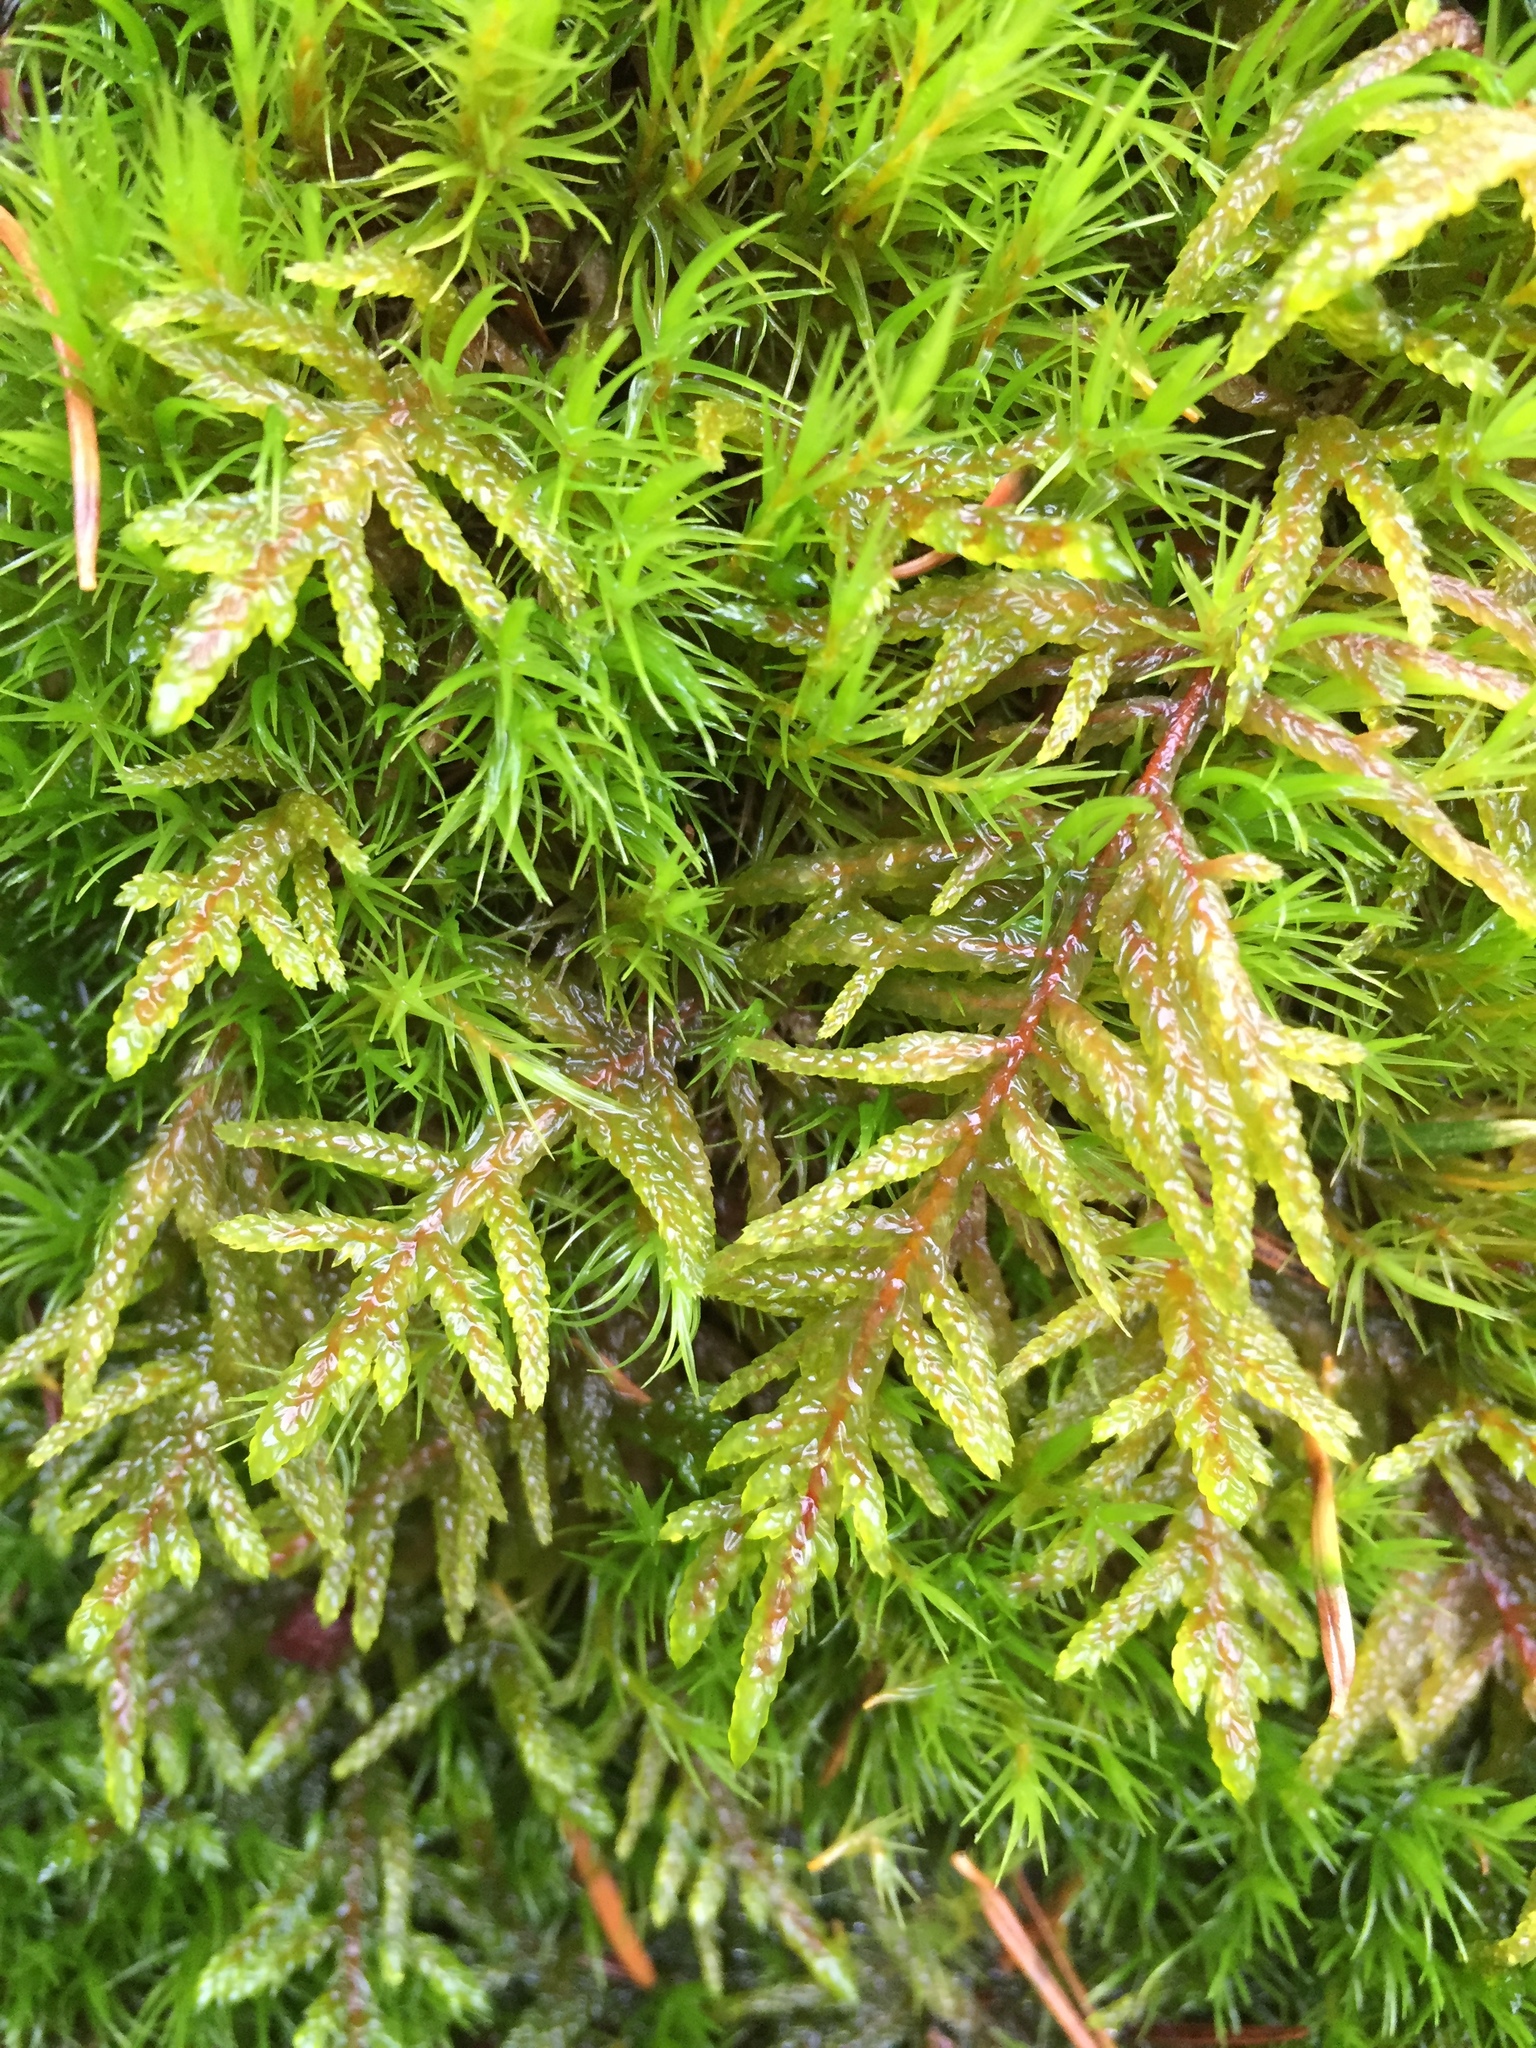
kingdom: Plantae
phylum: Bryophyta
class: Bryopsida
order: Hypnales
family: Hylocomiaceae
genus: Pleurozium
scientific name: Pleurozium schreberi
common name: Red-stemmed feather moss
